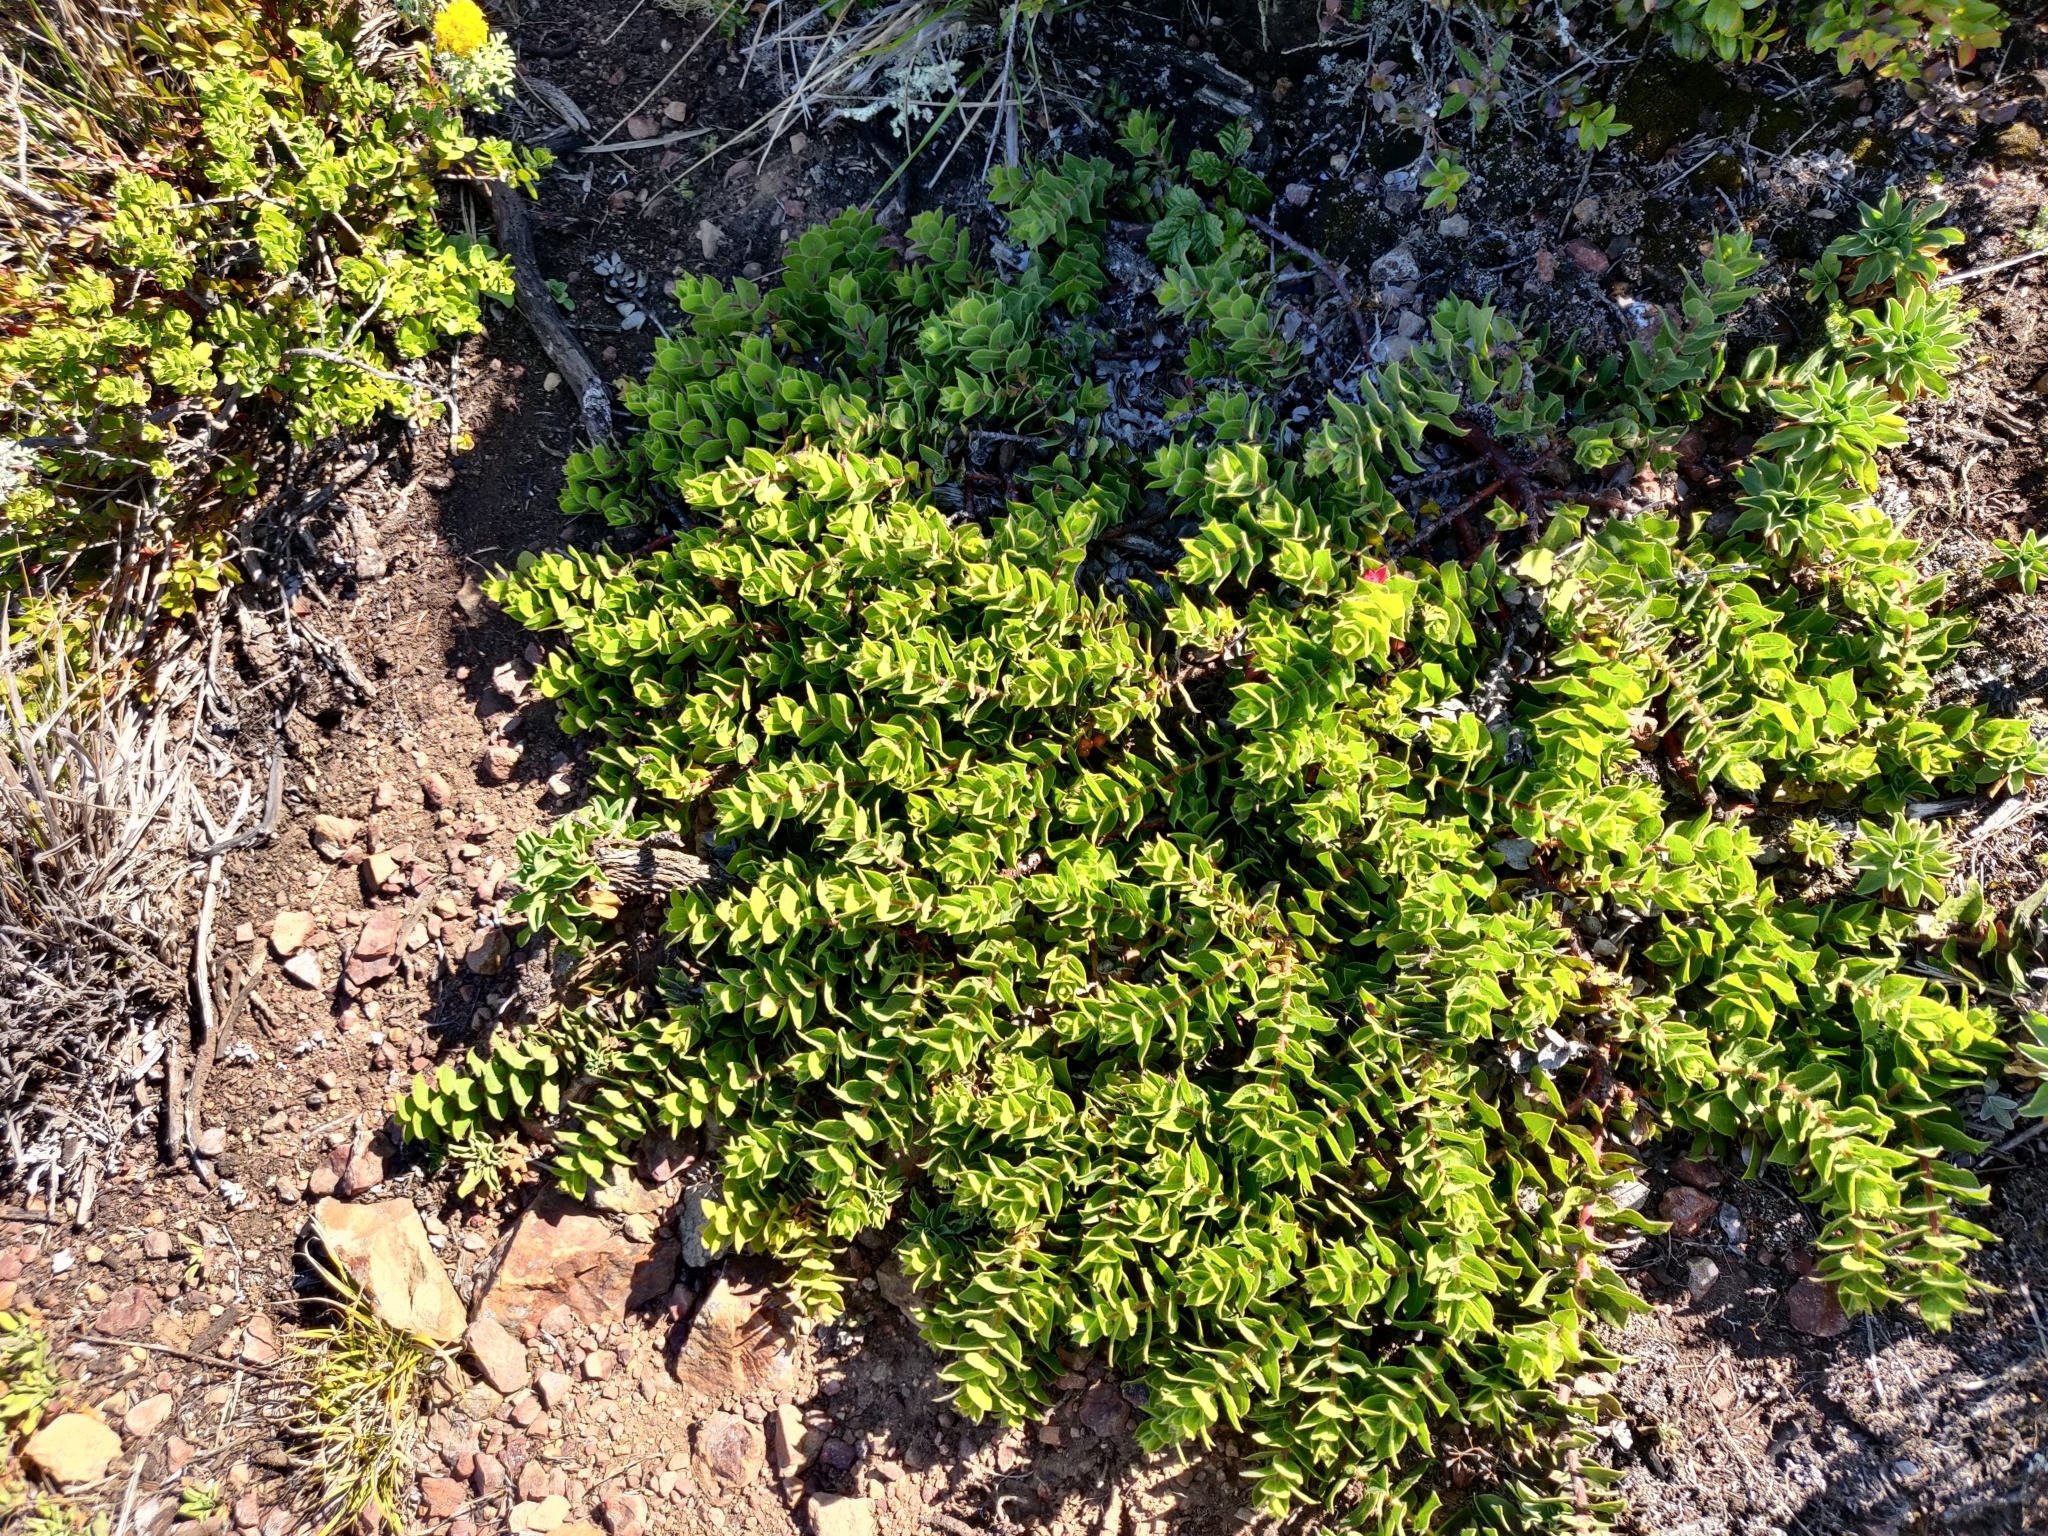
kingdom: Plantae
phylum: Tracheophyta
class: Magnoliopsida
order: Ericales
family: Ericaceae
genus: Arctostaphylos
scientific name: Arctostaphylos imbricata
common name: San bruno mountain manzanita
